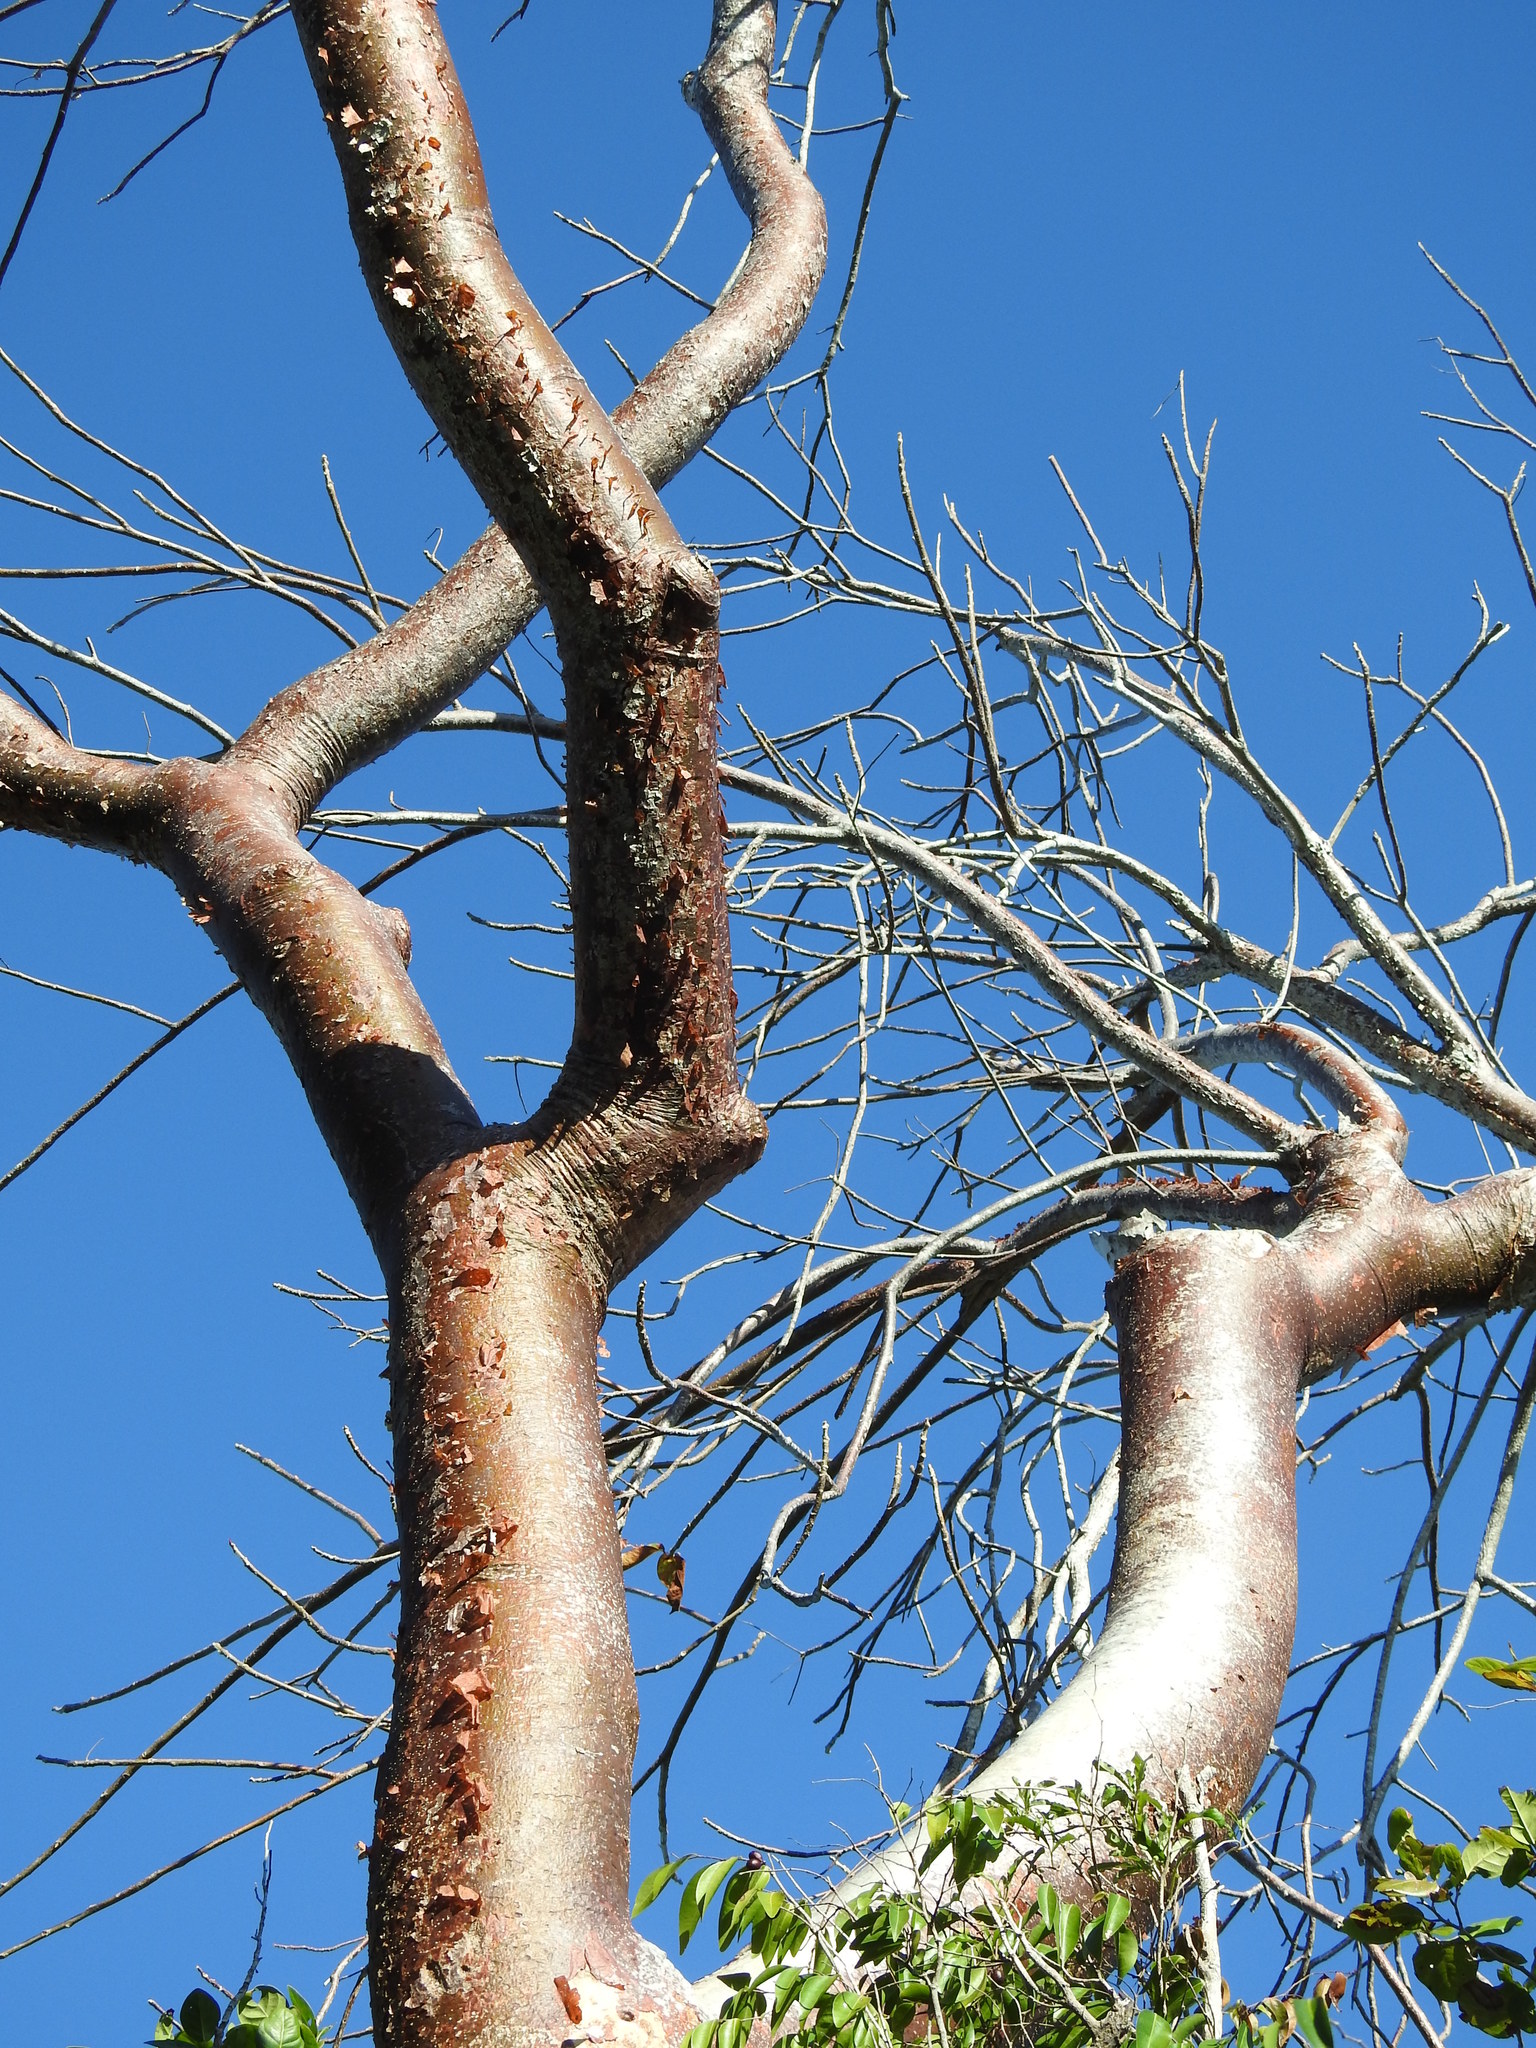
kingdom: Plantae
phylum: Tracheophyta
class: Magnoliopsida
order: Sapindales
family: Burseraceae
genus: Bursera
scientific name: Bursera simaruba
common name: Turpentine tree
